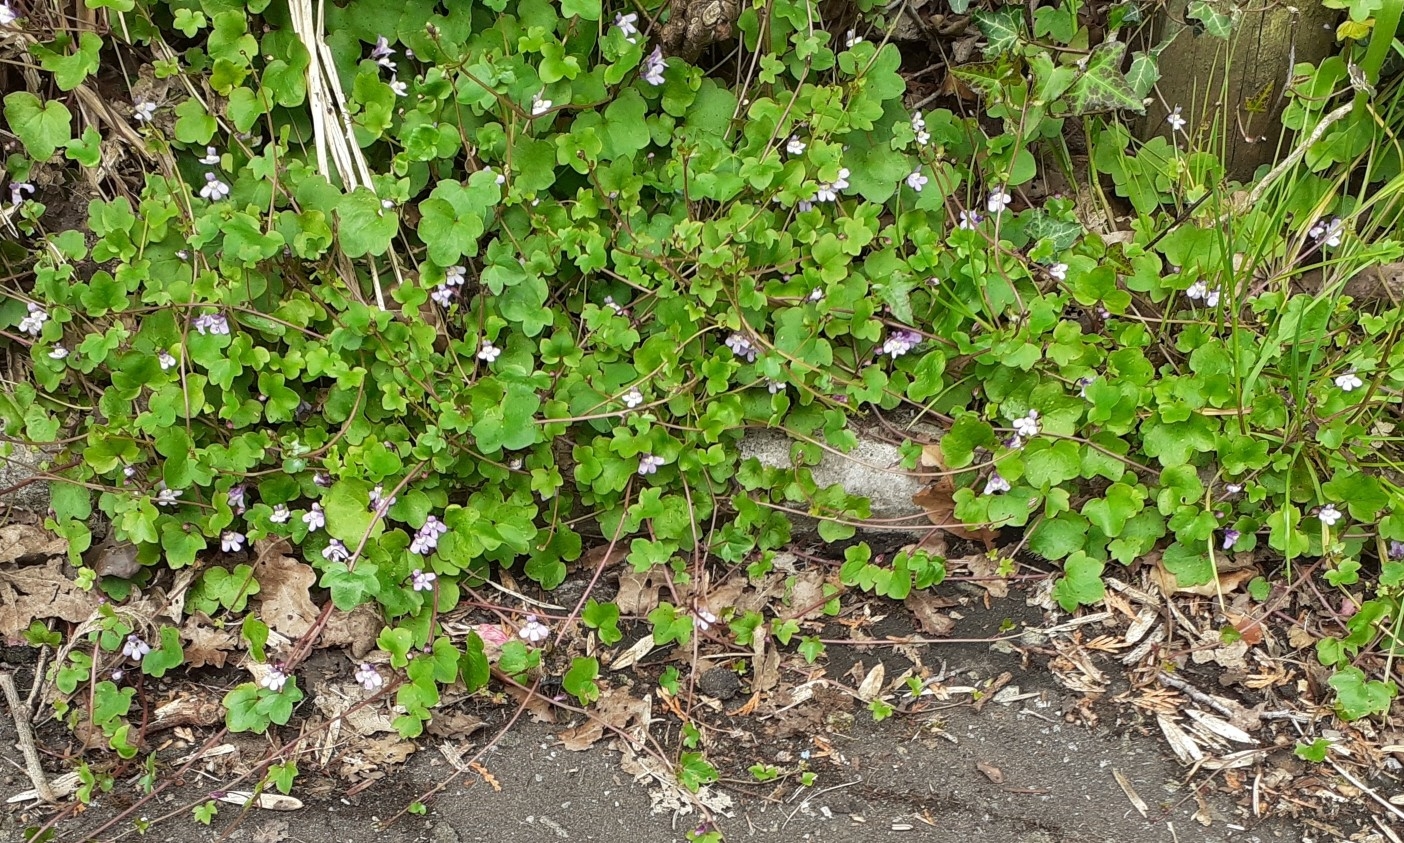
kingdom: Plantae
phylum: Tracheophyta
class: Magnoliopsida
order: Lamiales
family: Plantaginaceae
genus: Cymbalaria
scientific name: Cymbalaria muralis
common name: Ivy-leaved toadflax
